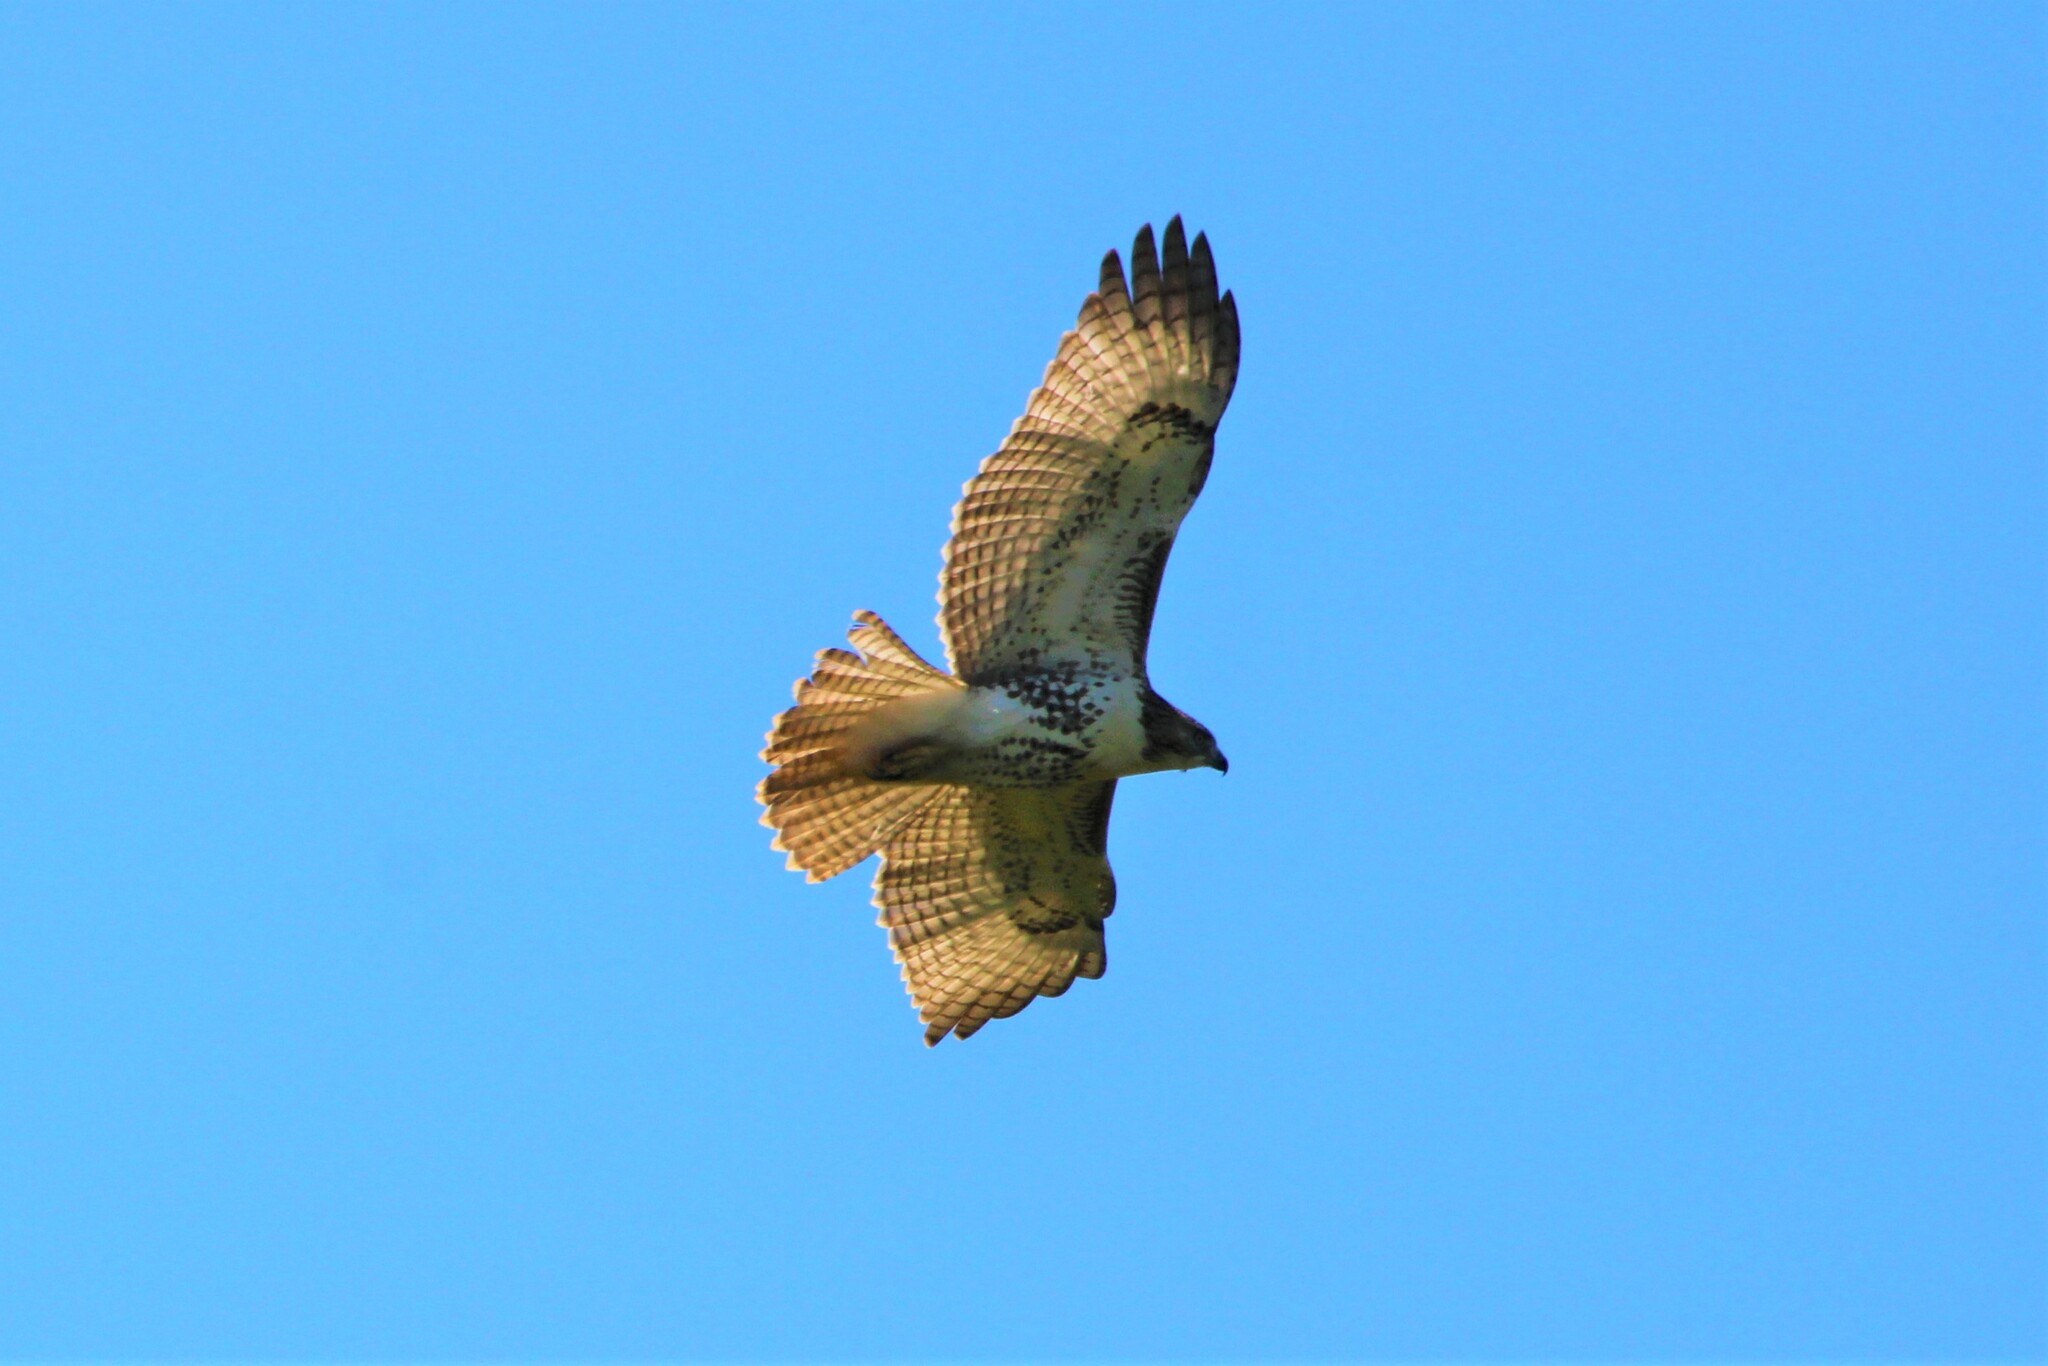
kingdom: Animalia
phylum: Chordata
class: Aves
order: Accipitriformes
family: Accipitridae
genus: Buteo
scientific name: Buteo jamaicensis
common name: Red-tailed hawk
